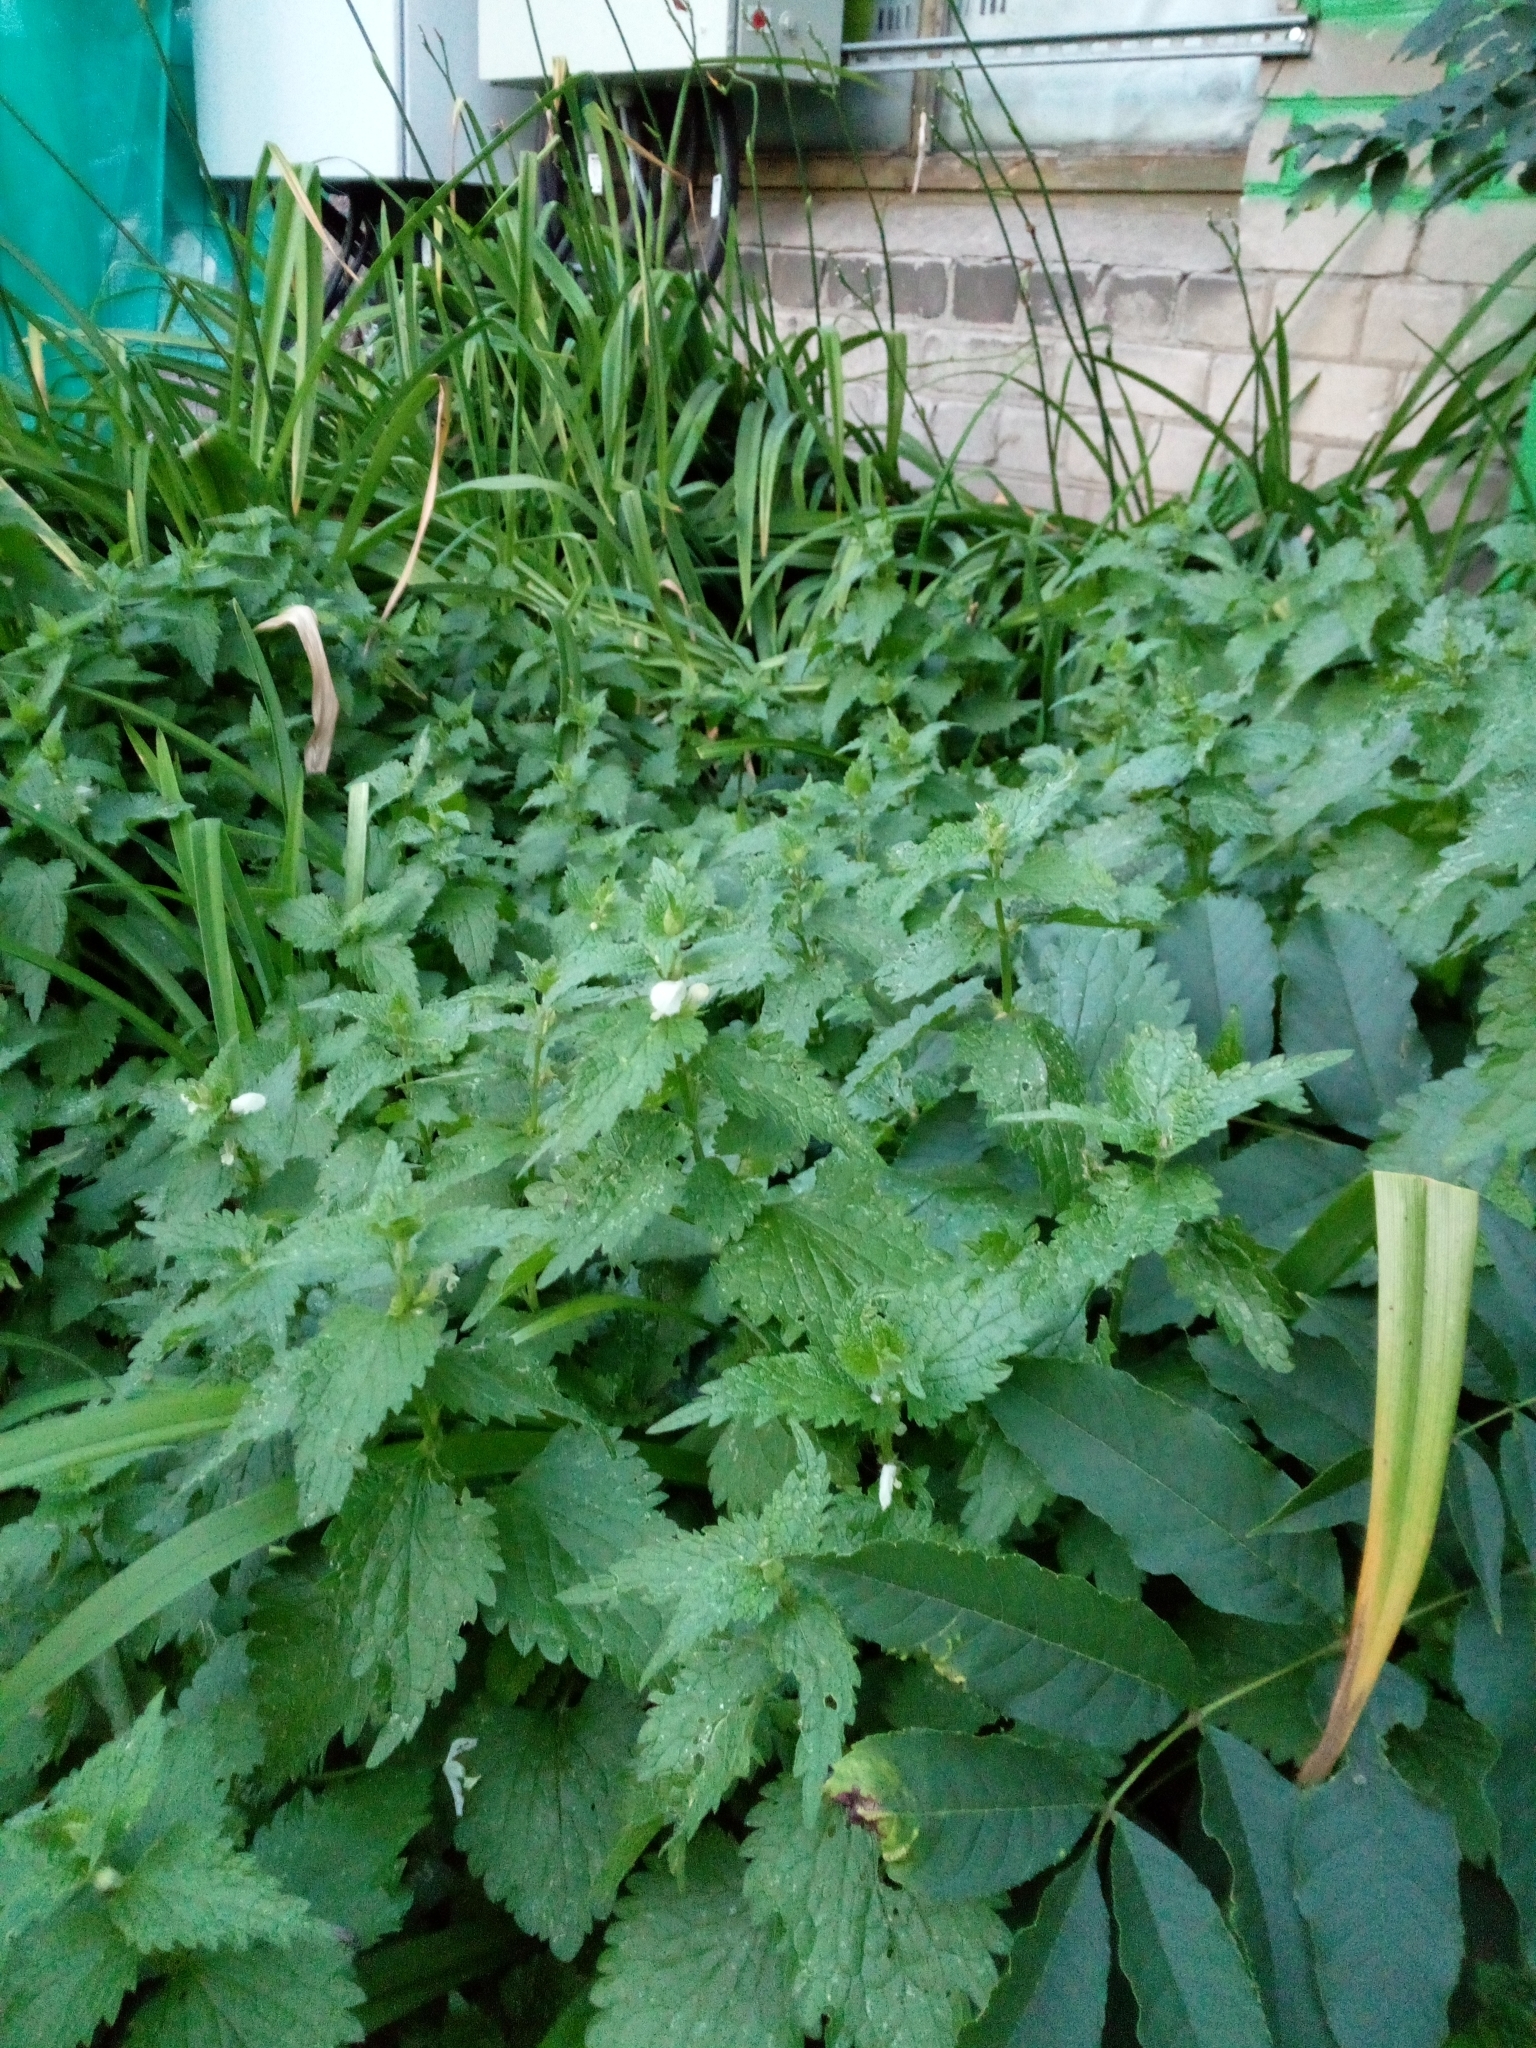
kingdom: Plantae
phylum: Tracheophyta
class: Magnoliopsida
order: Lamiales
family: Lamiaceae
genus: Lamium
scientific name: Lamium album
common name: White dead-nettle
